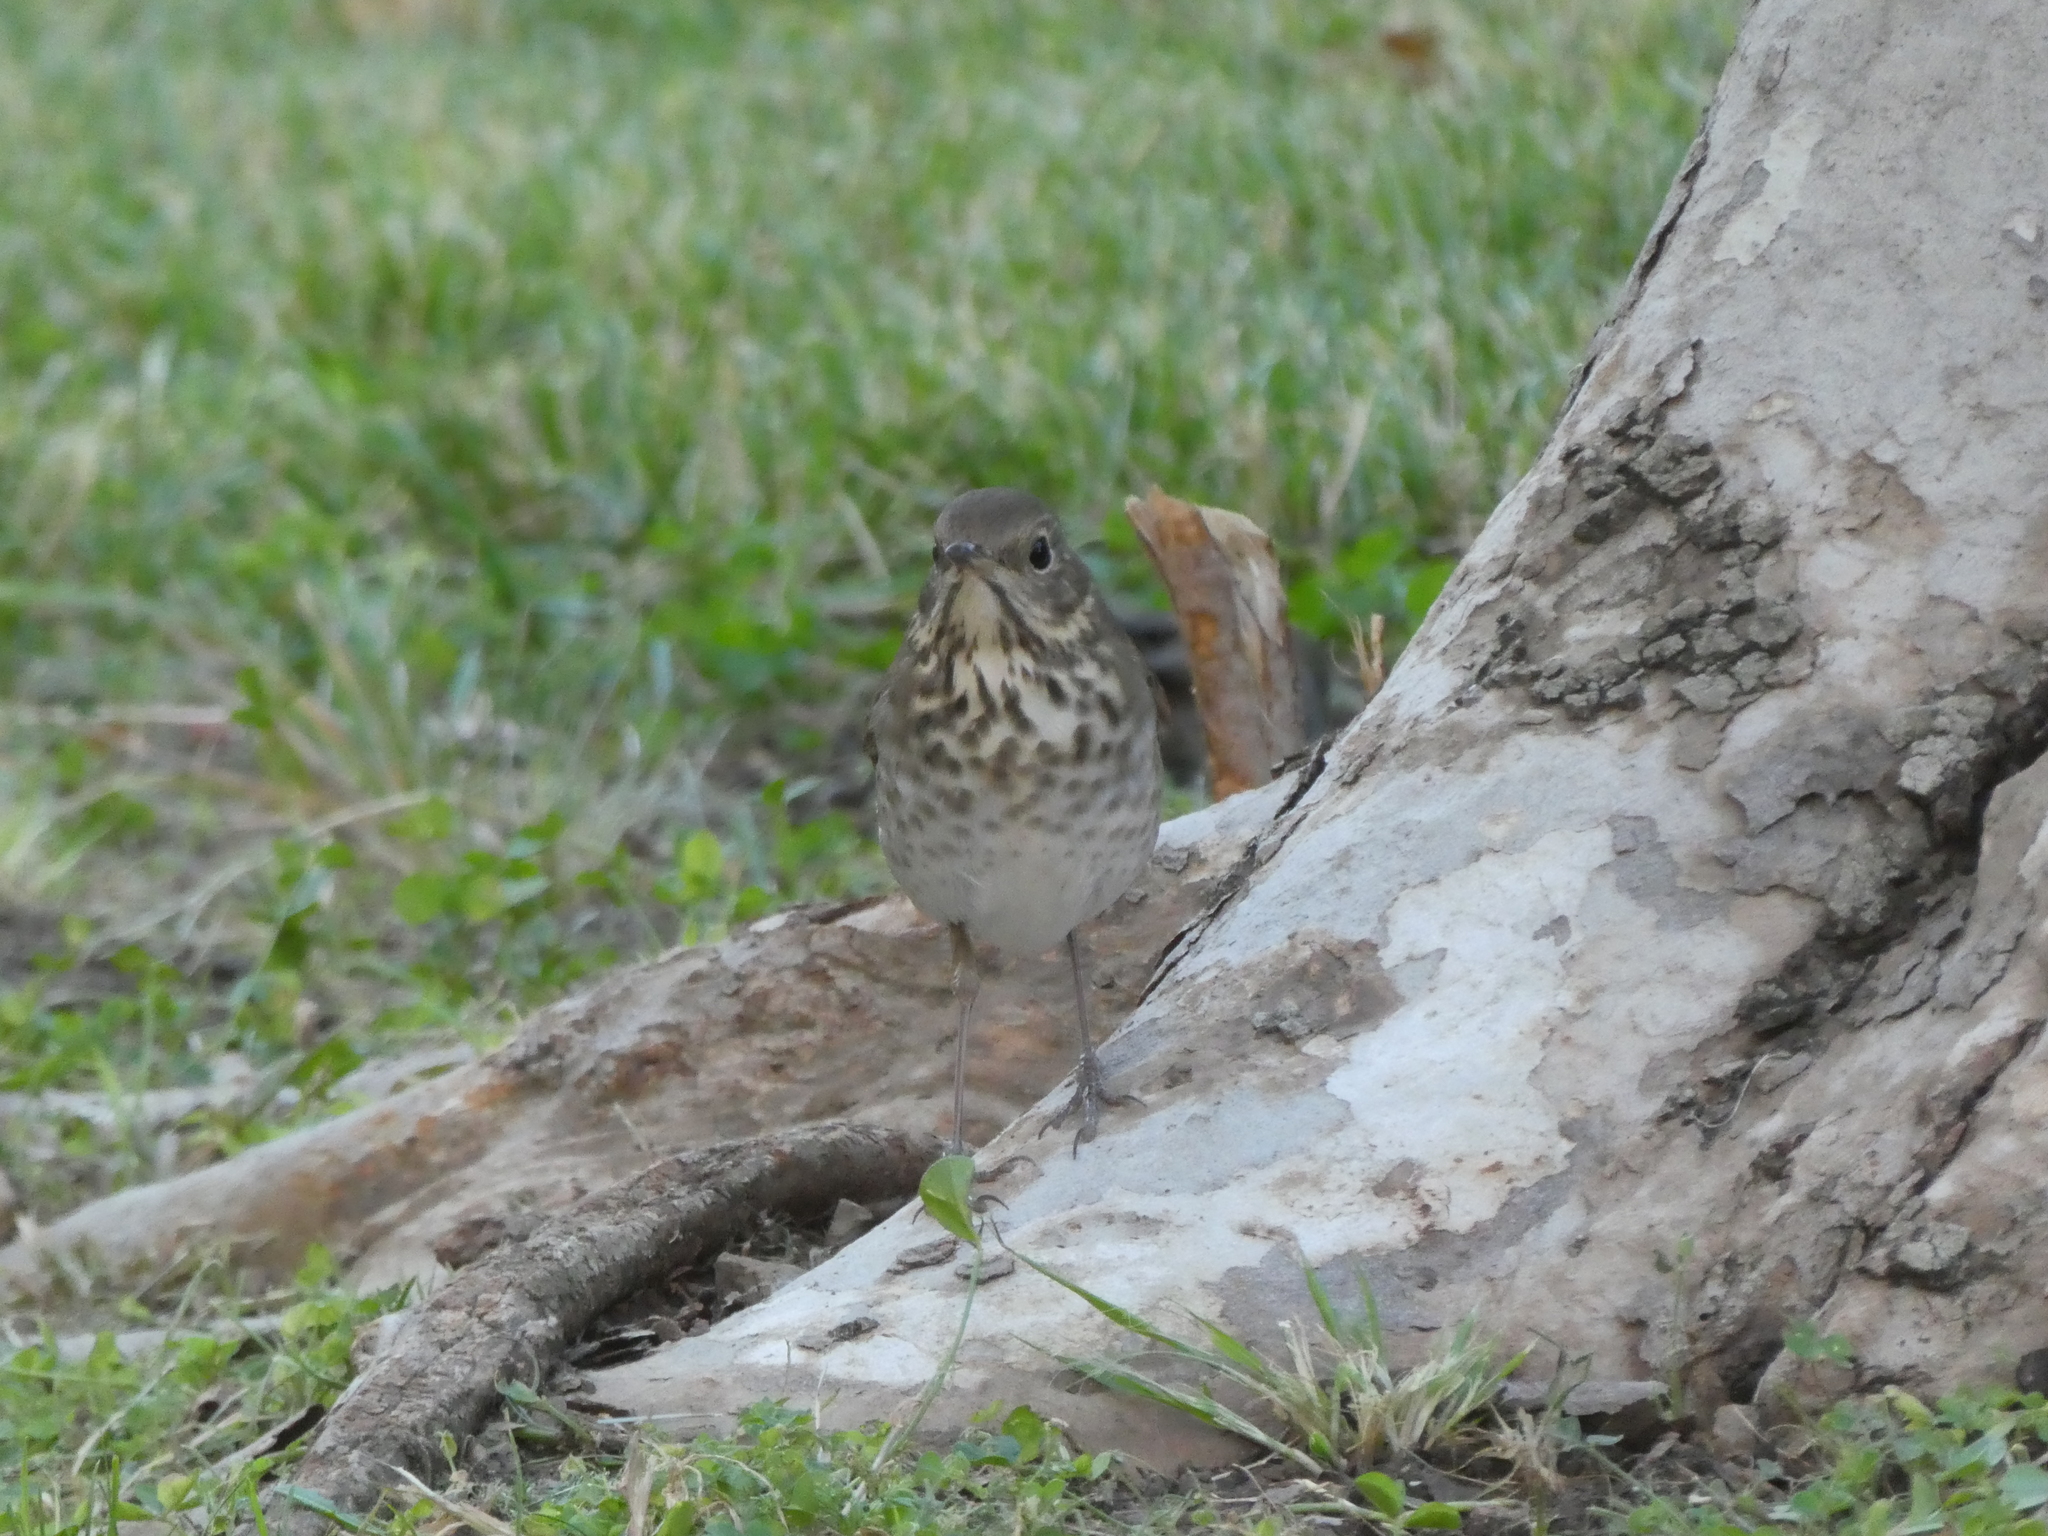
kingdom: Animalia
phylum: Chordata
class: Aves
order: Passeriformes
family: Turdidae
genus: Catharus
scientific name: Catharus guttatus
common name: Hermit thrush
